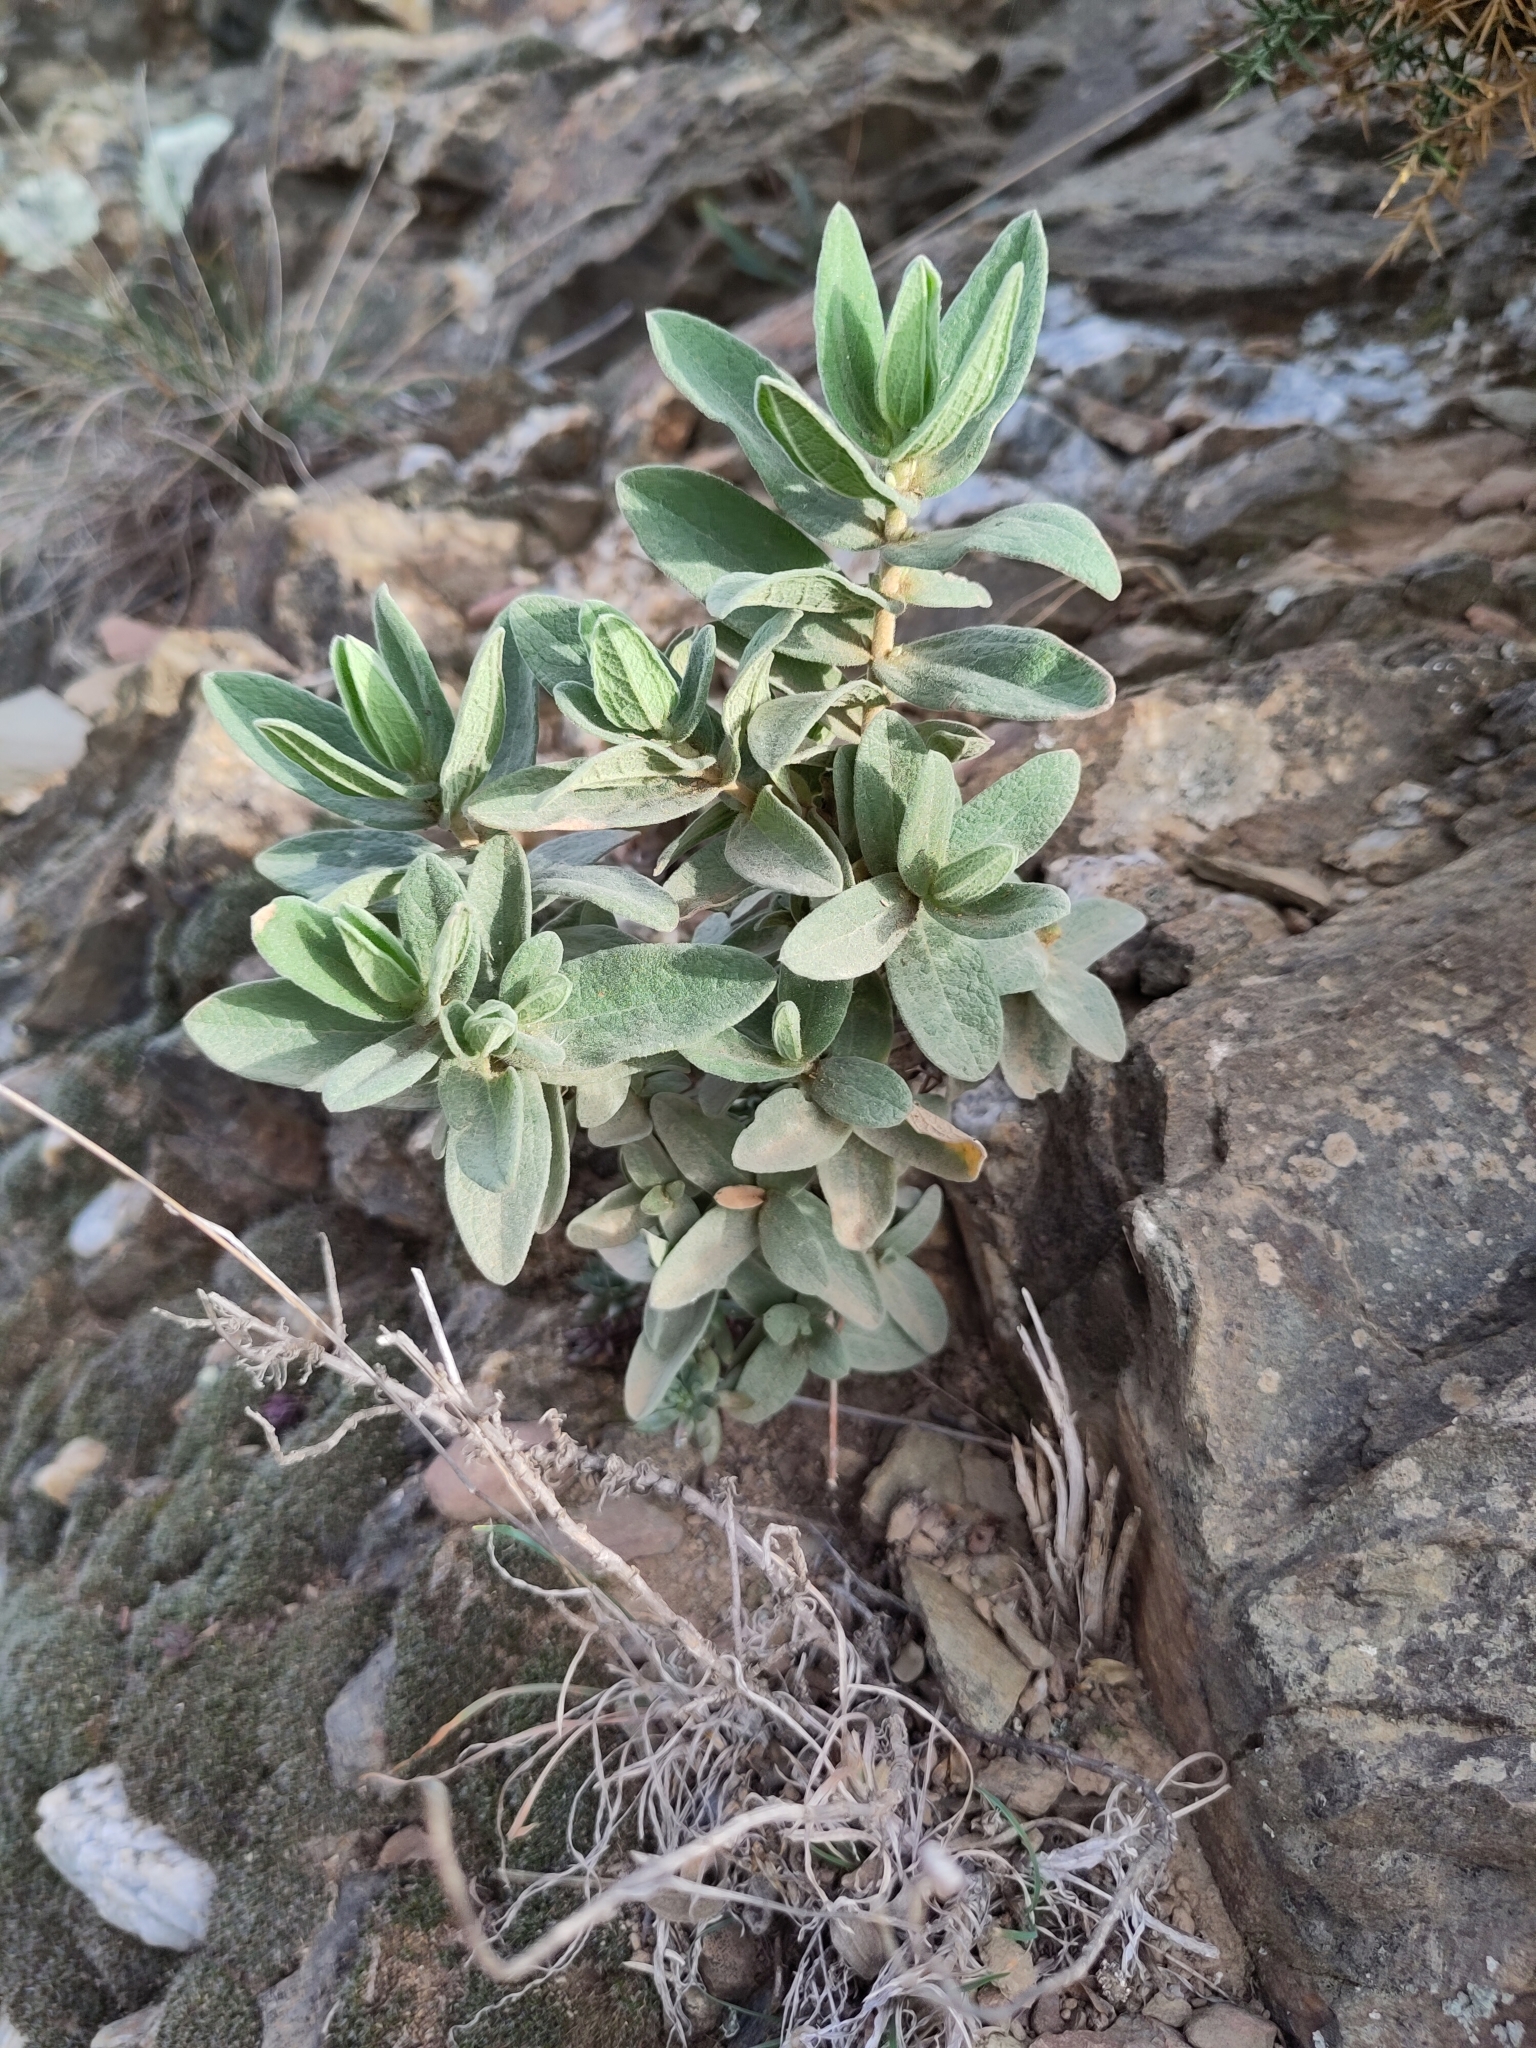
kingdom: Plantae
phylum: Tracheophyta
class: Magnoliopsida
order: Malvales
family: Cistaceae
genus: Cistus
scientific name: Cistus albidus
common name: White-leaf rock-rose
